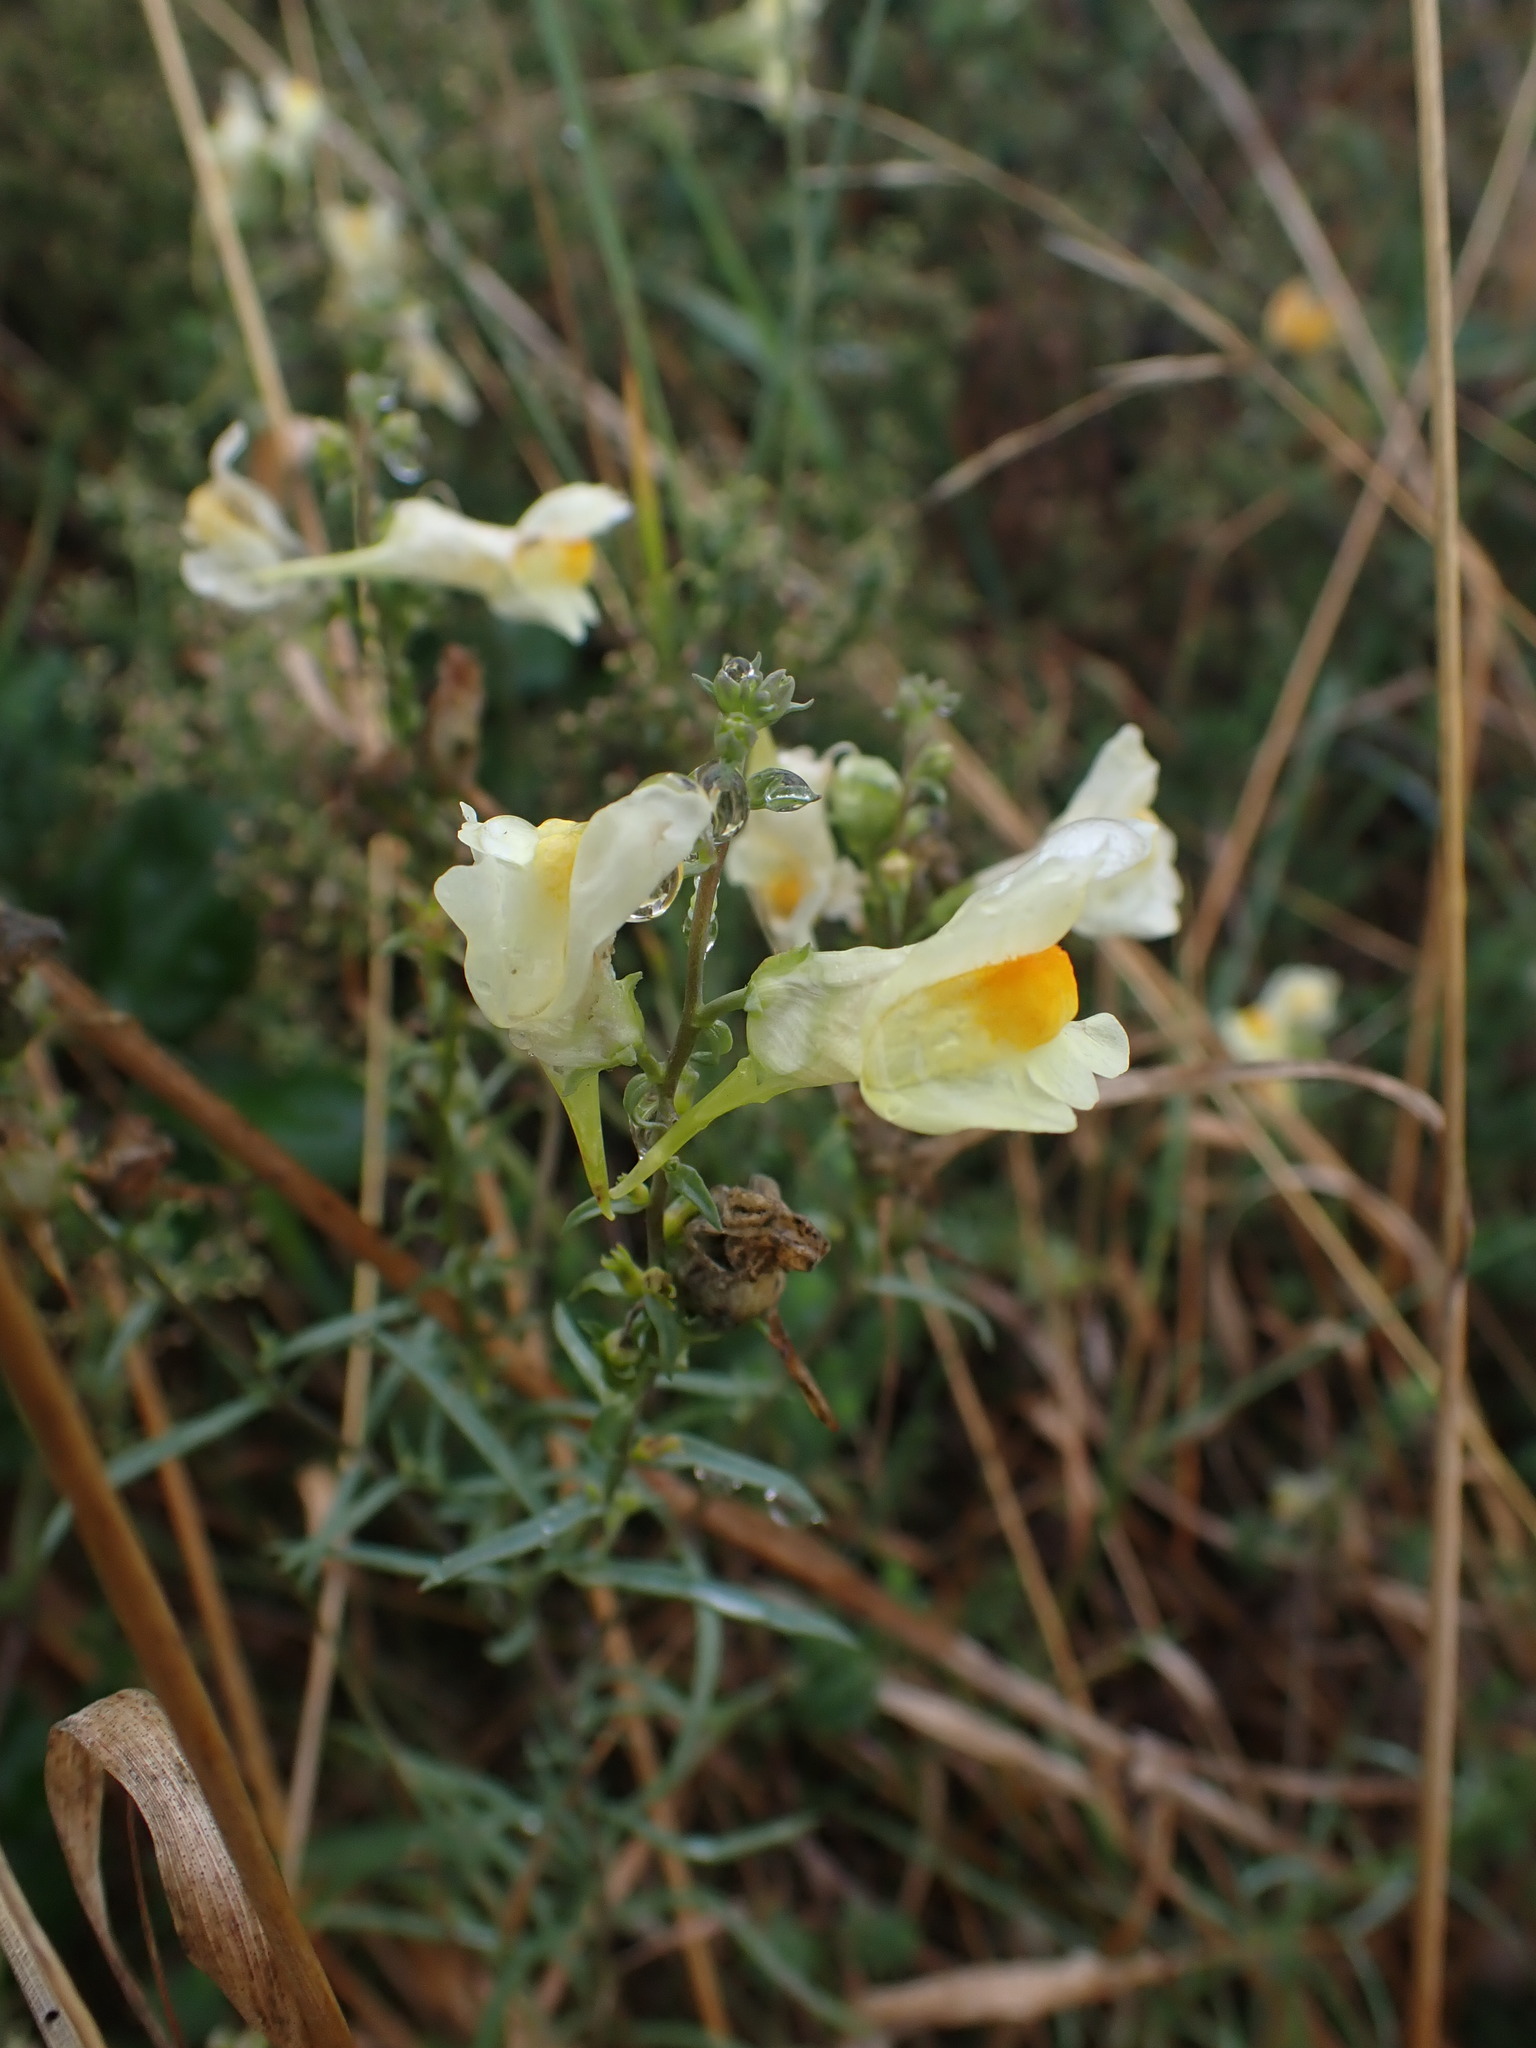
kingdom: Plantae
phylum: Tracheophyta
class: Magnoliopsida
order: Lamiales
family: Plantaginaceae
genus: Linaria
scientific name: Linaria vulgaris
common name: Butter and eggs
